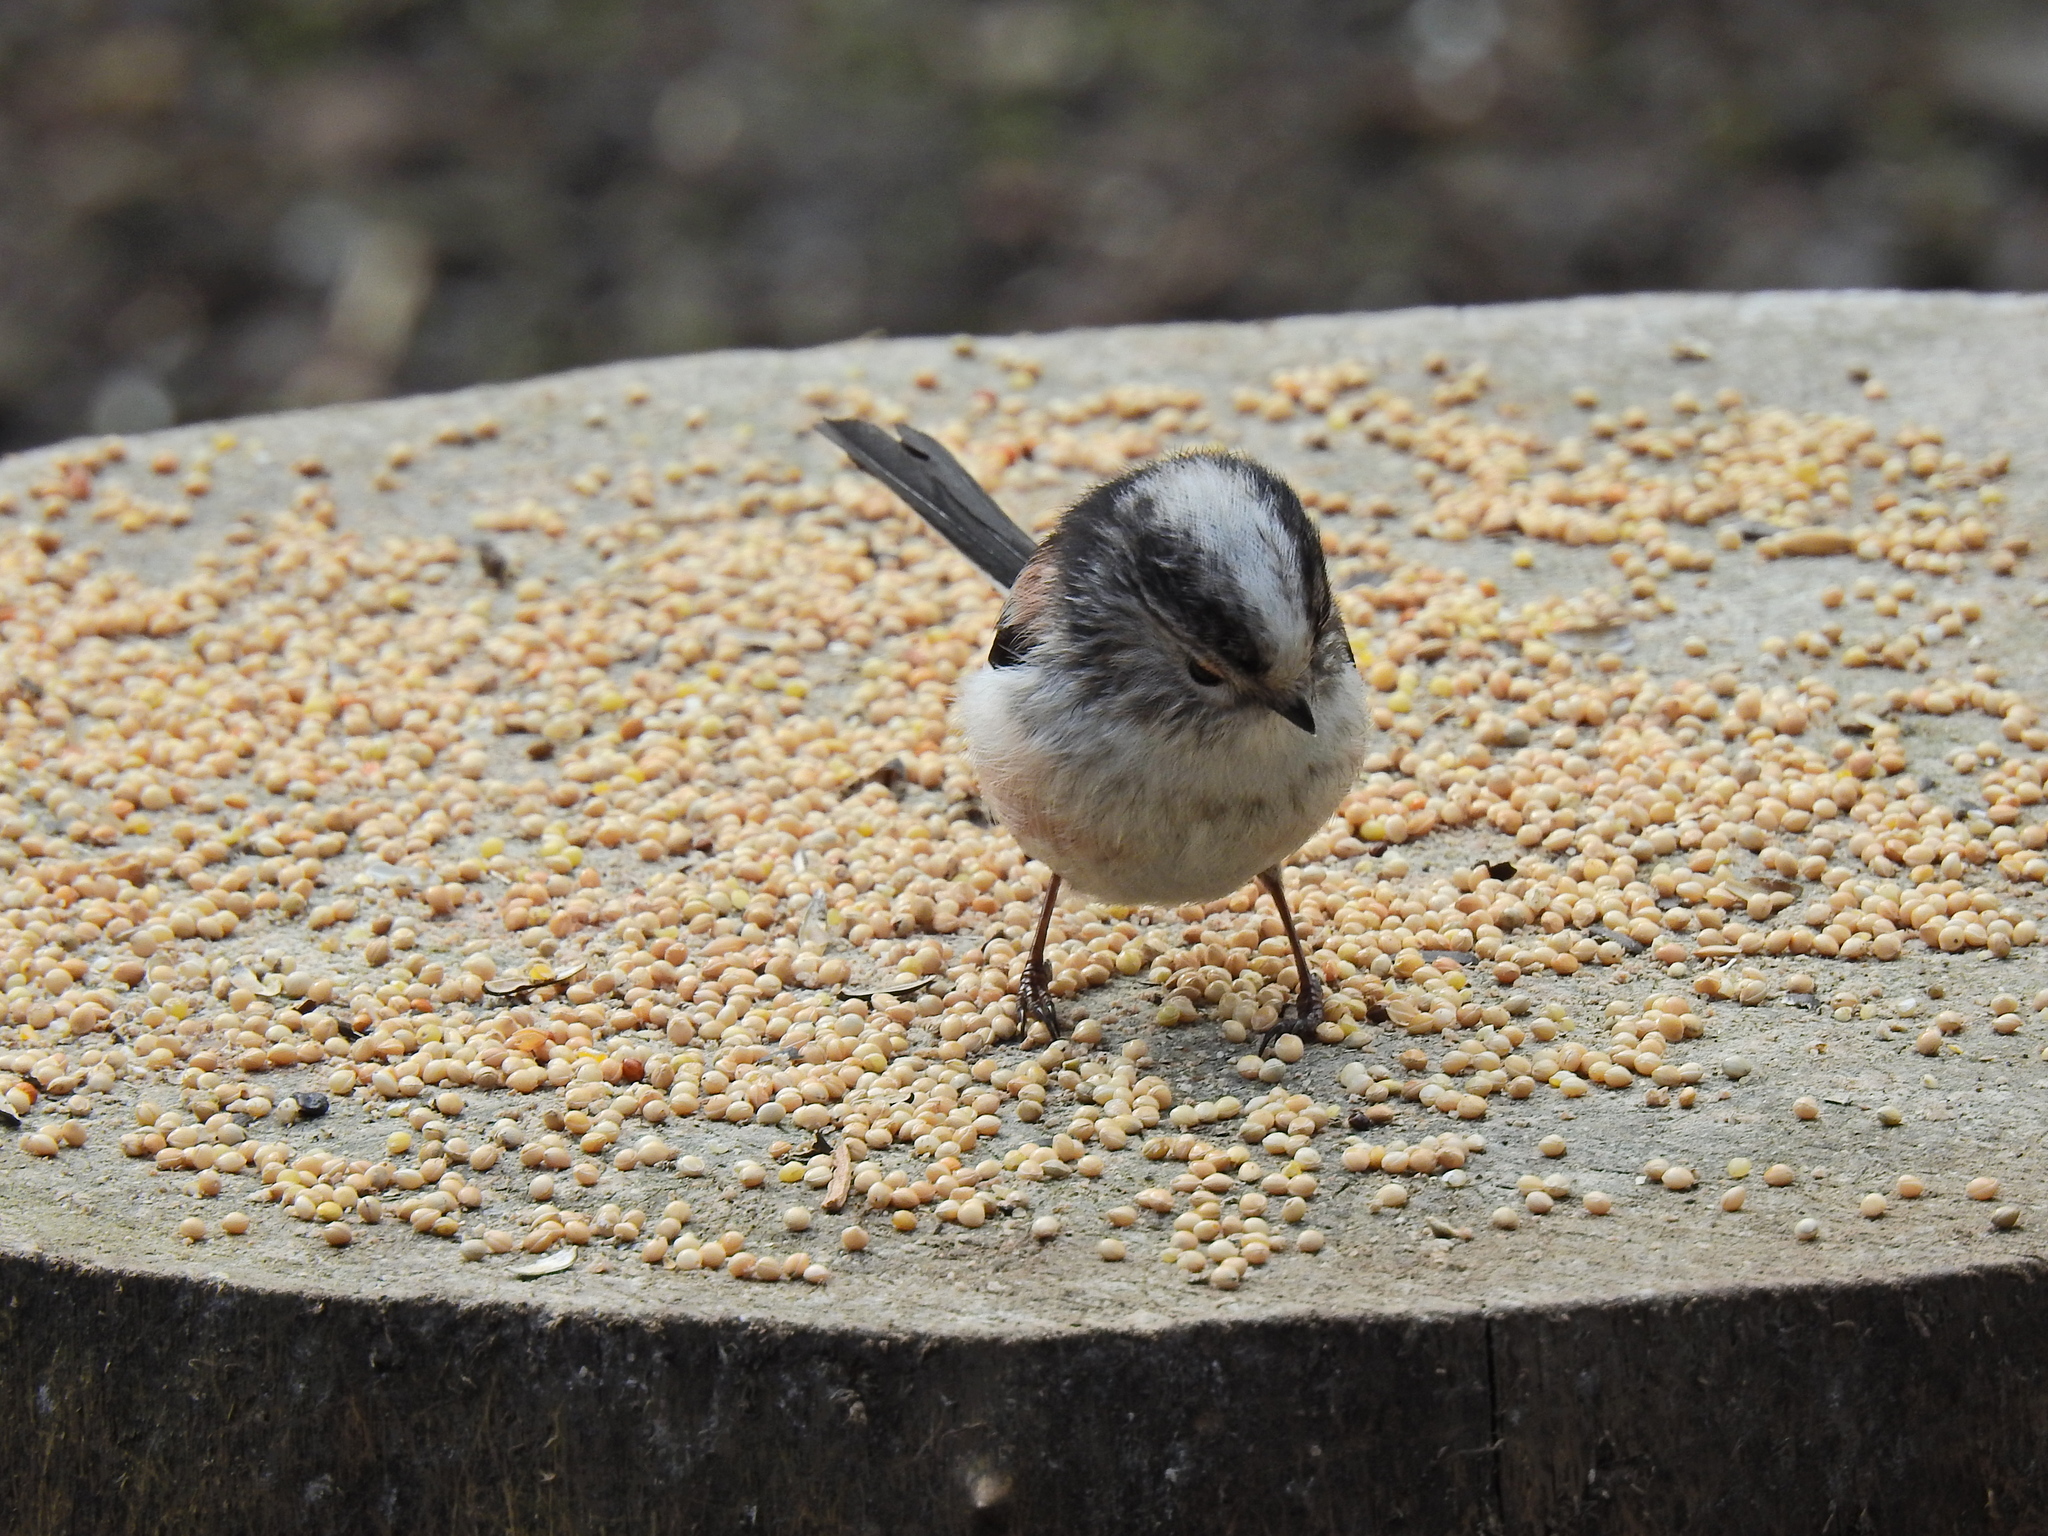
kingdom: Animalia
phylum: Chordata
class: Aves
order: Passeriformes
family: Aegithalidae
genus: Aegithalos
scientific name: Aegithalos caudatus
